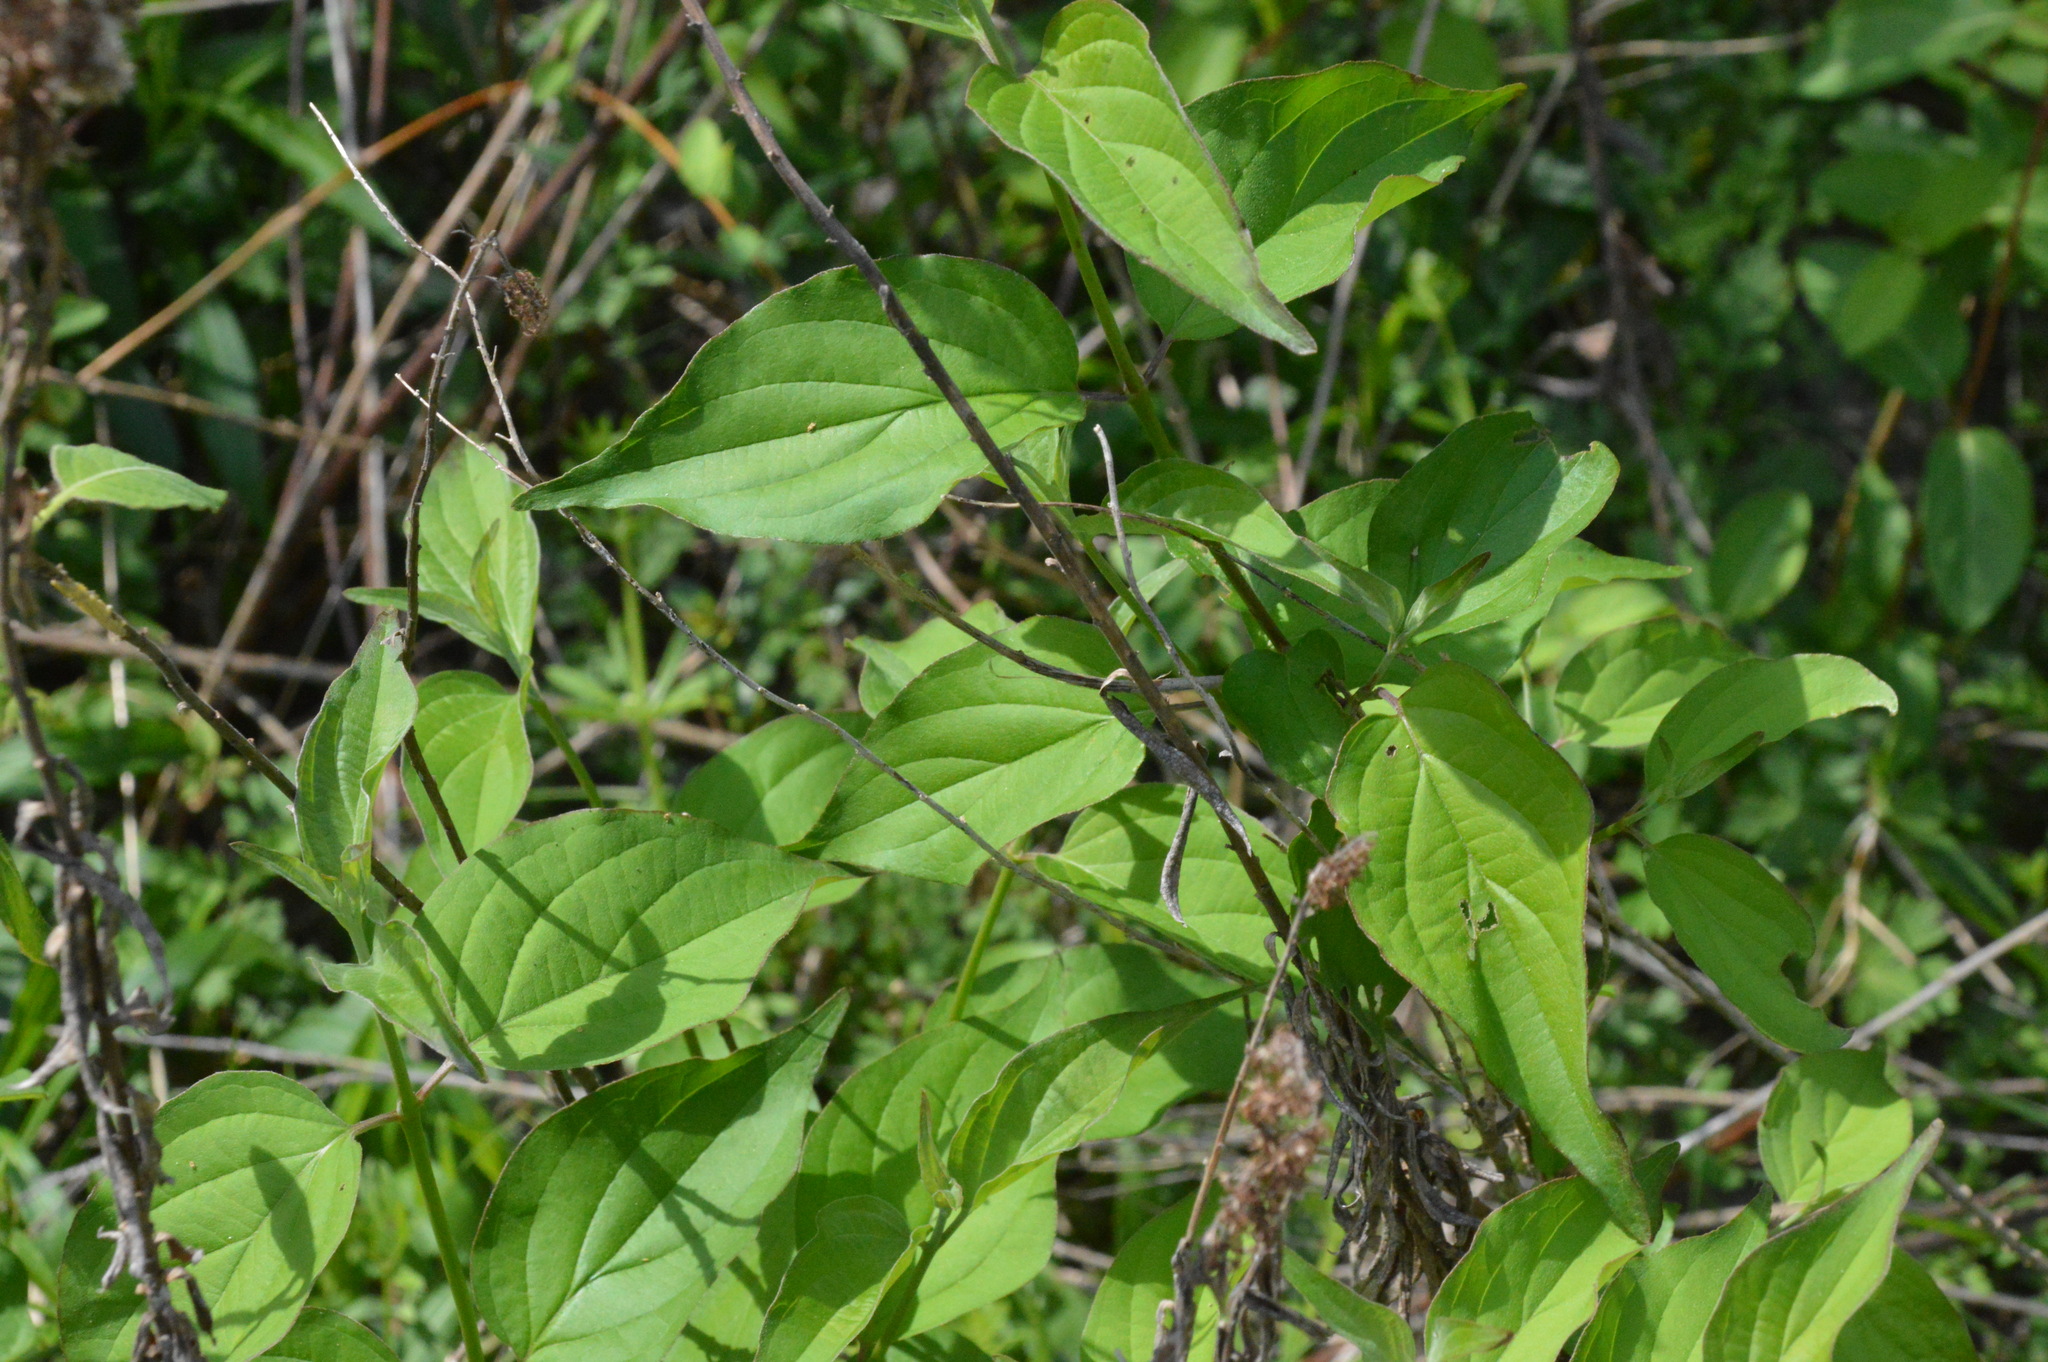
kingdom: Plantae
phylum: Tracheophyta
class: Magnoliopsida
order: Cornales
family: Cornaceae
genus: Cornus
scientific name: Cornus drummondii
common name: Rough-leaf dogwood
